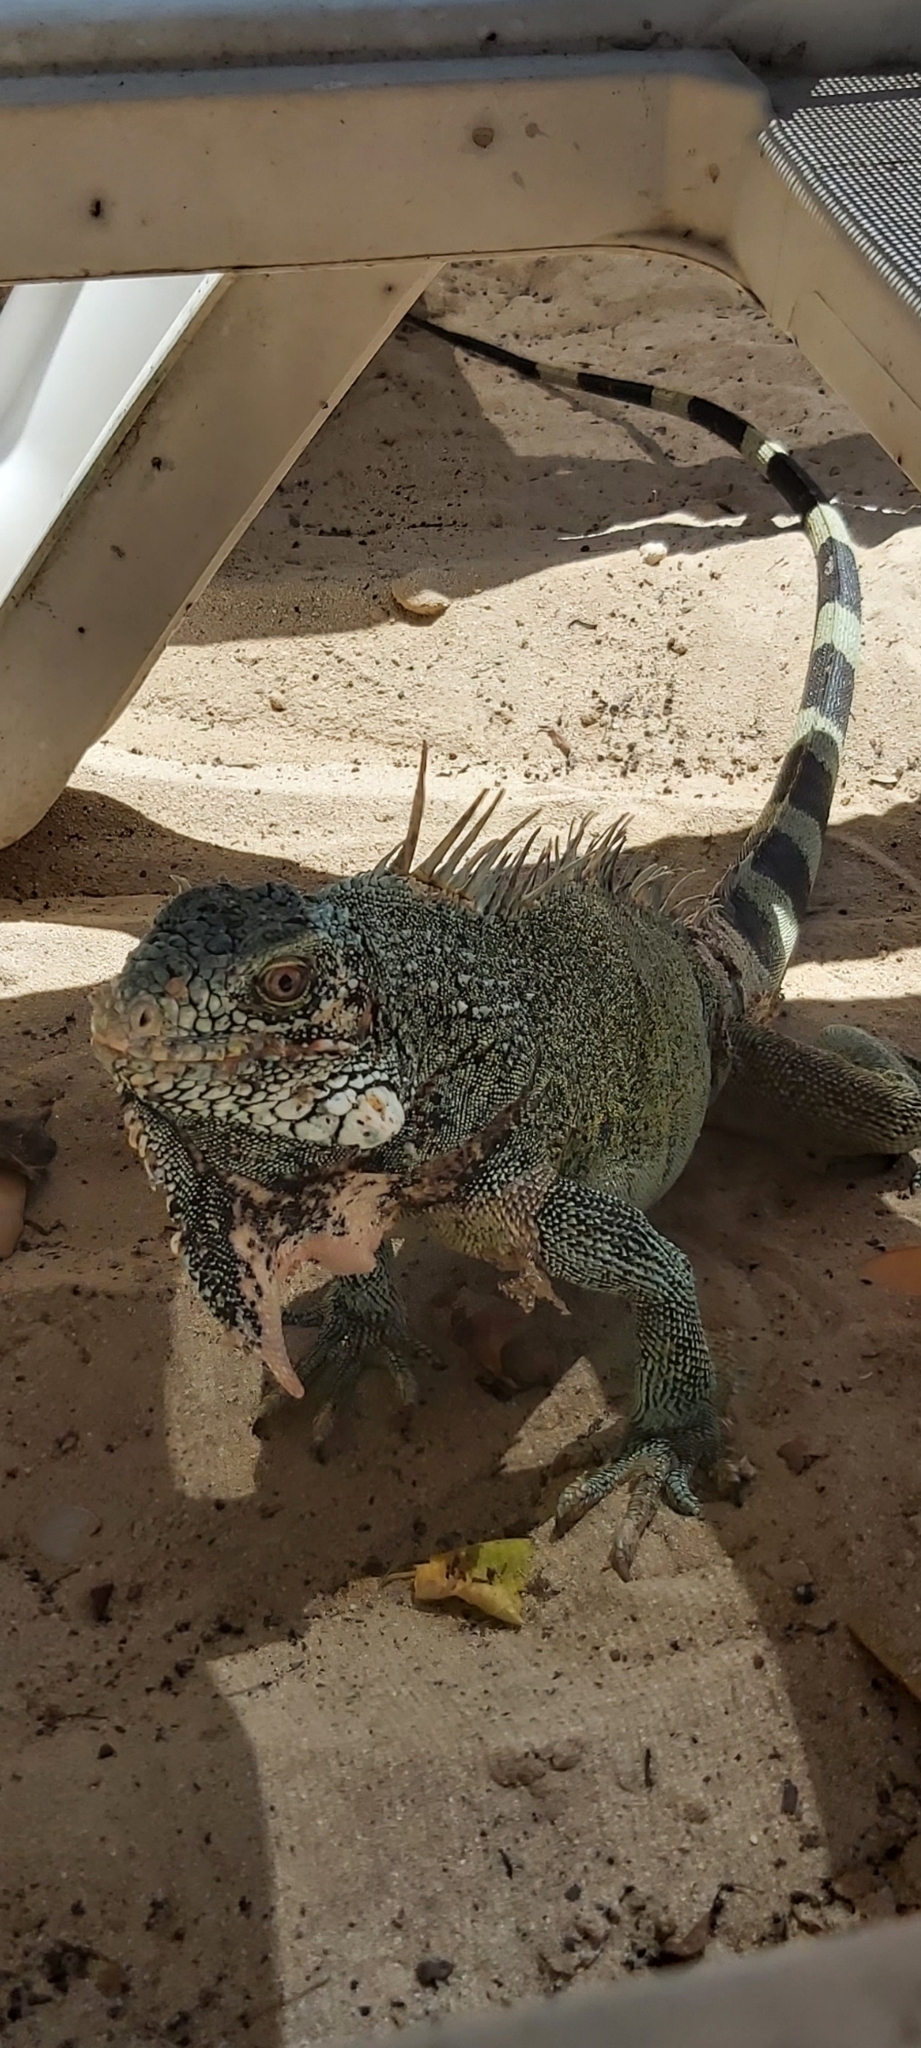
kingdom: Animalia
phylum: Chordata
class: Squamata
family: Iguanidae
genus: Iguana
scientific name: Iguana iguana
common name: Green iguana
